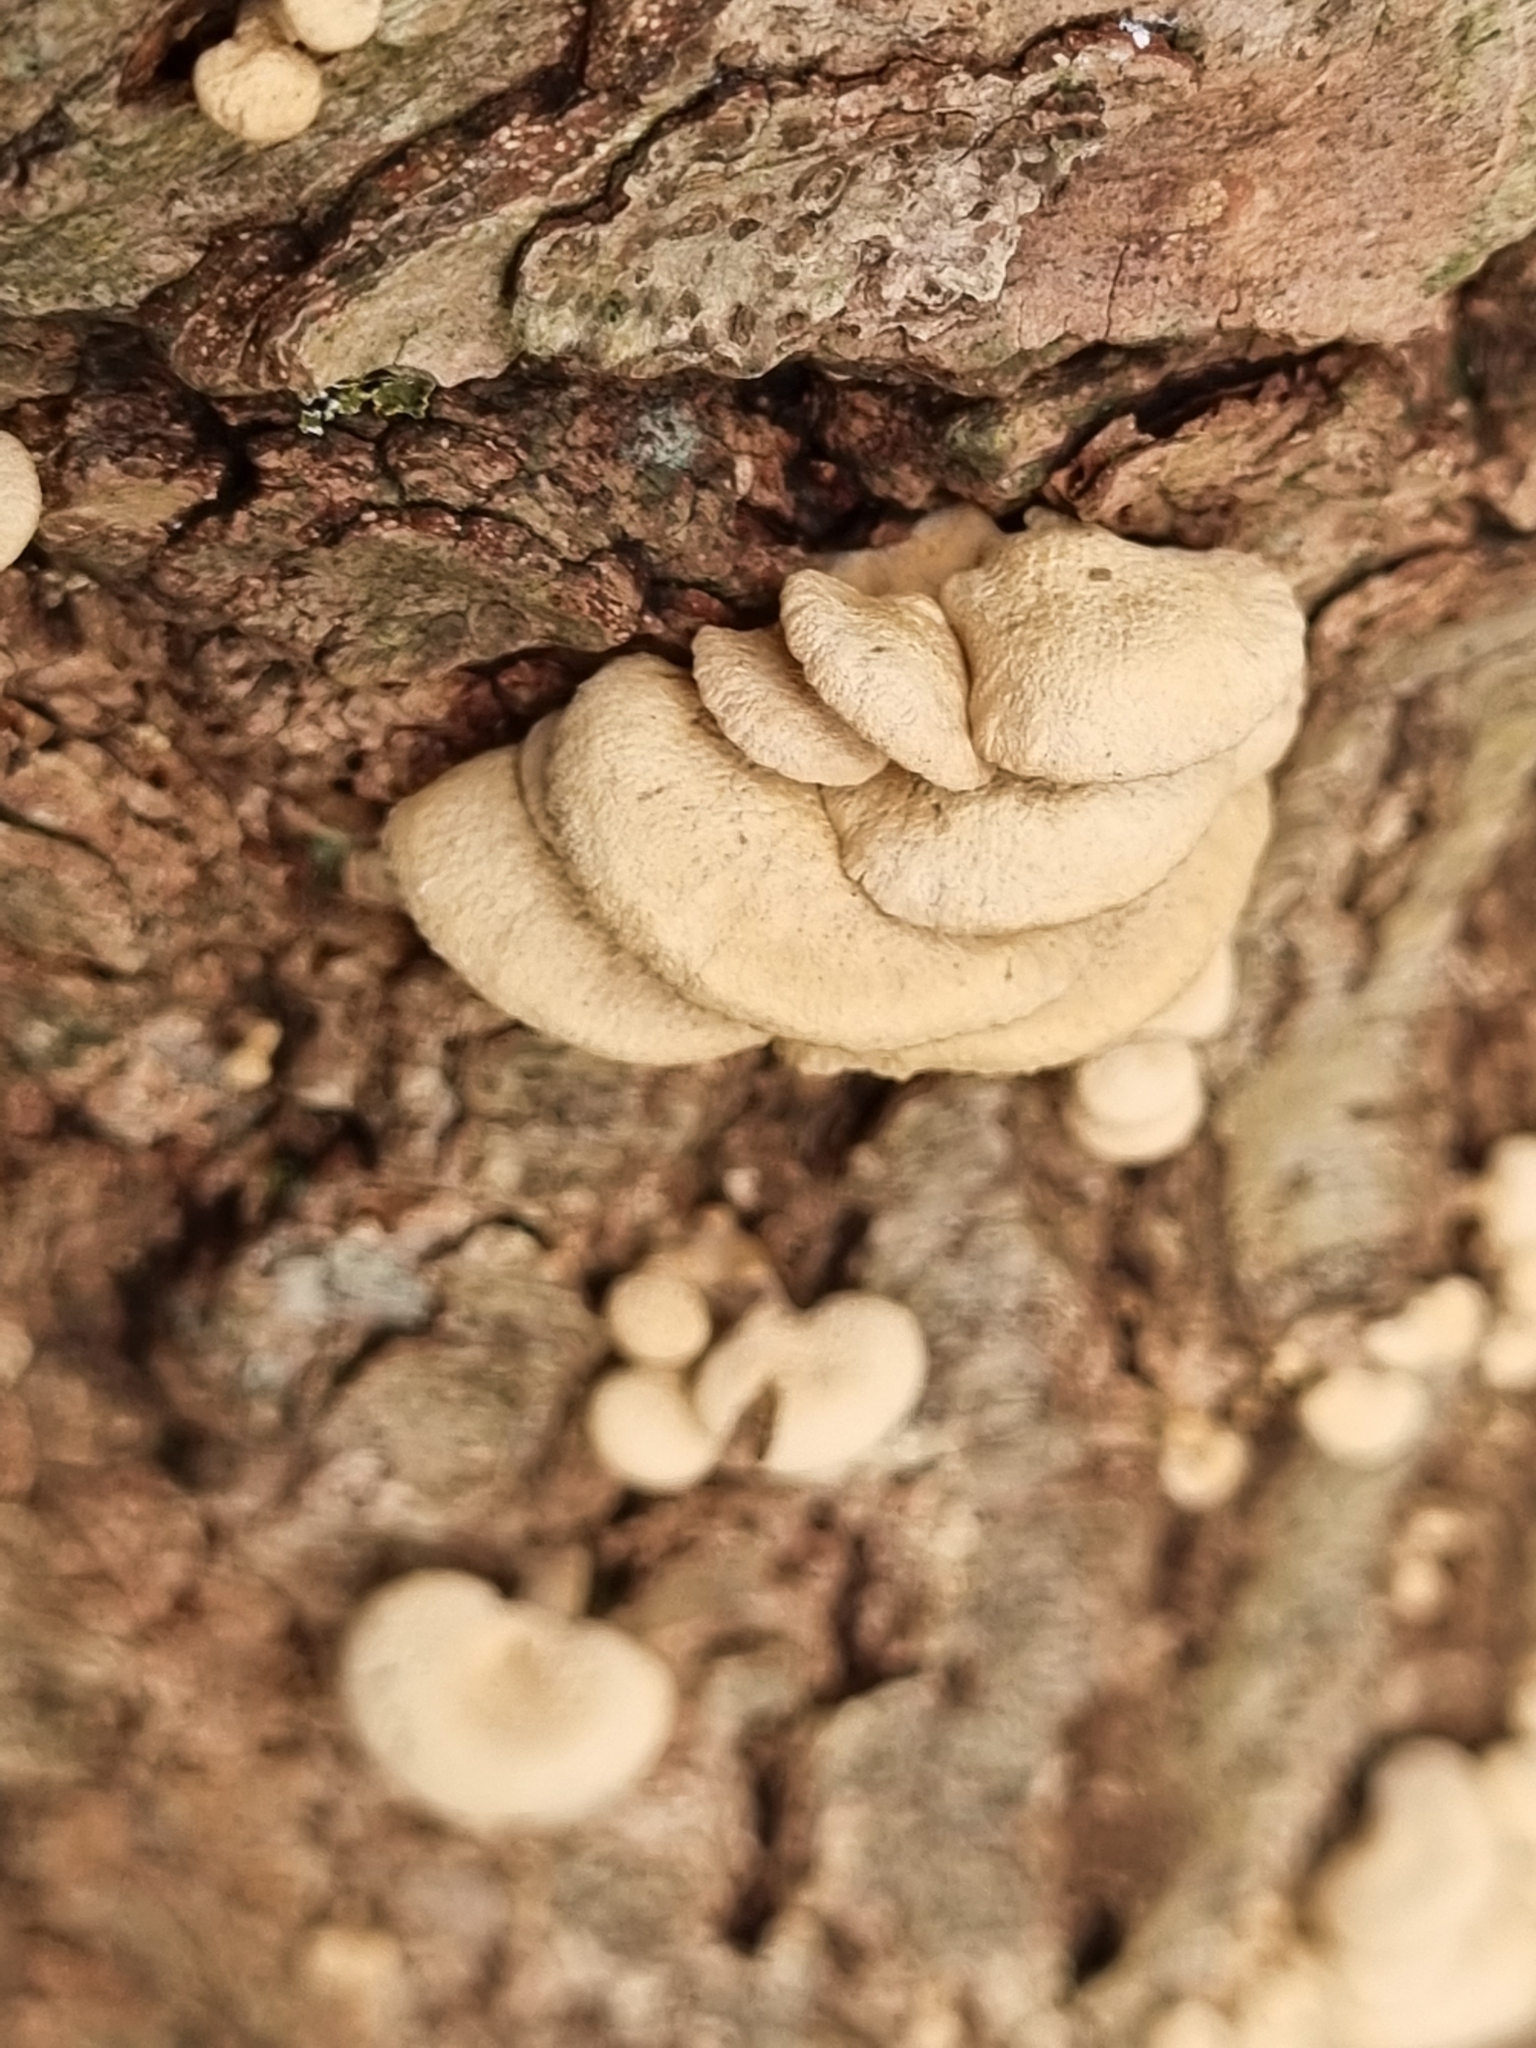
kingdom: Fungi
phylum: Basidiomycota
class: Agaricomycetes
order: Agaricales
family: Mycenaceae
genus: Panellus
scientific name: Panellus stipticus
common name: Bitter oysterling
